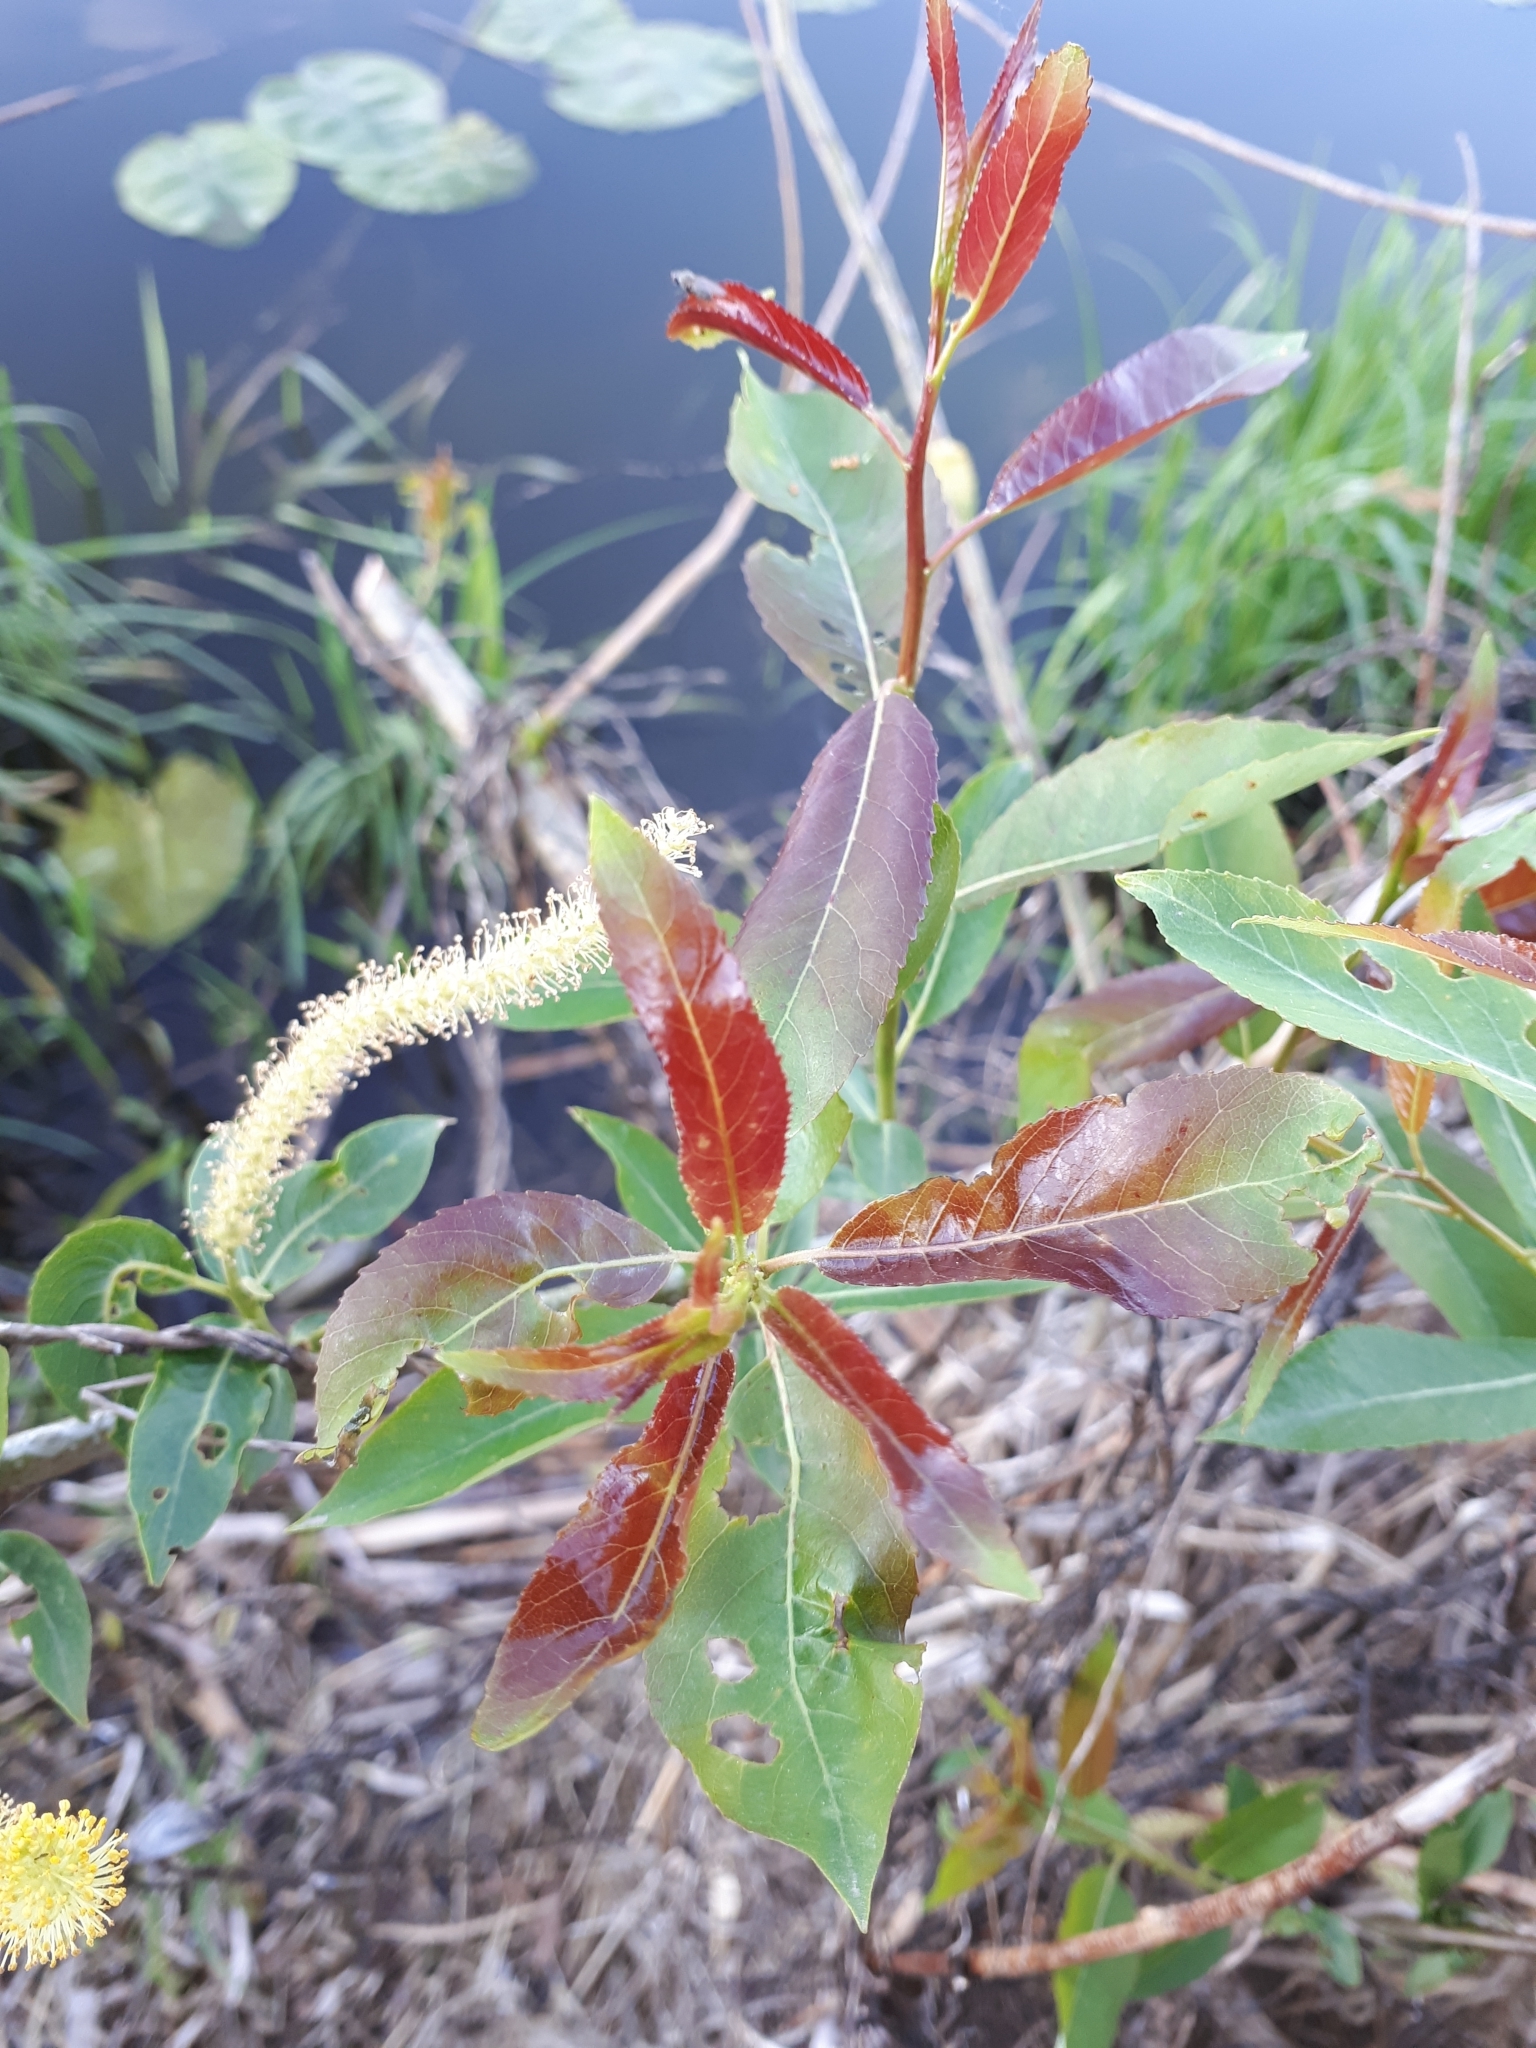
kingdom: Plantae
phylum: Tracheophyta
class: Magnoliopsida
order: Malpighiales
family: Salicaceae
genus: Salix
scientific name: Salix triandra
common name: Almond willow
